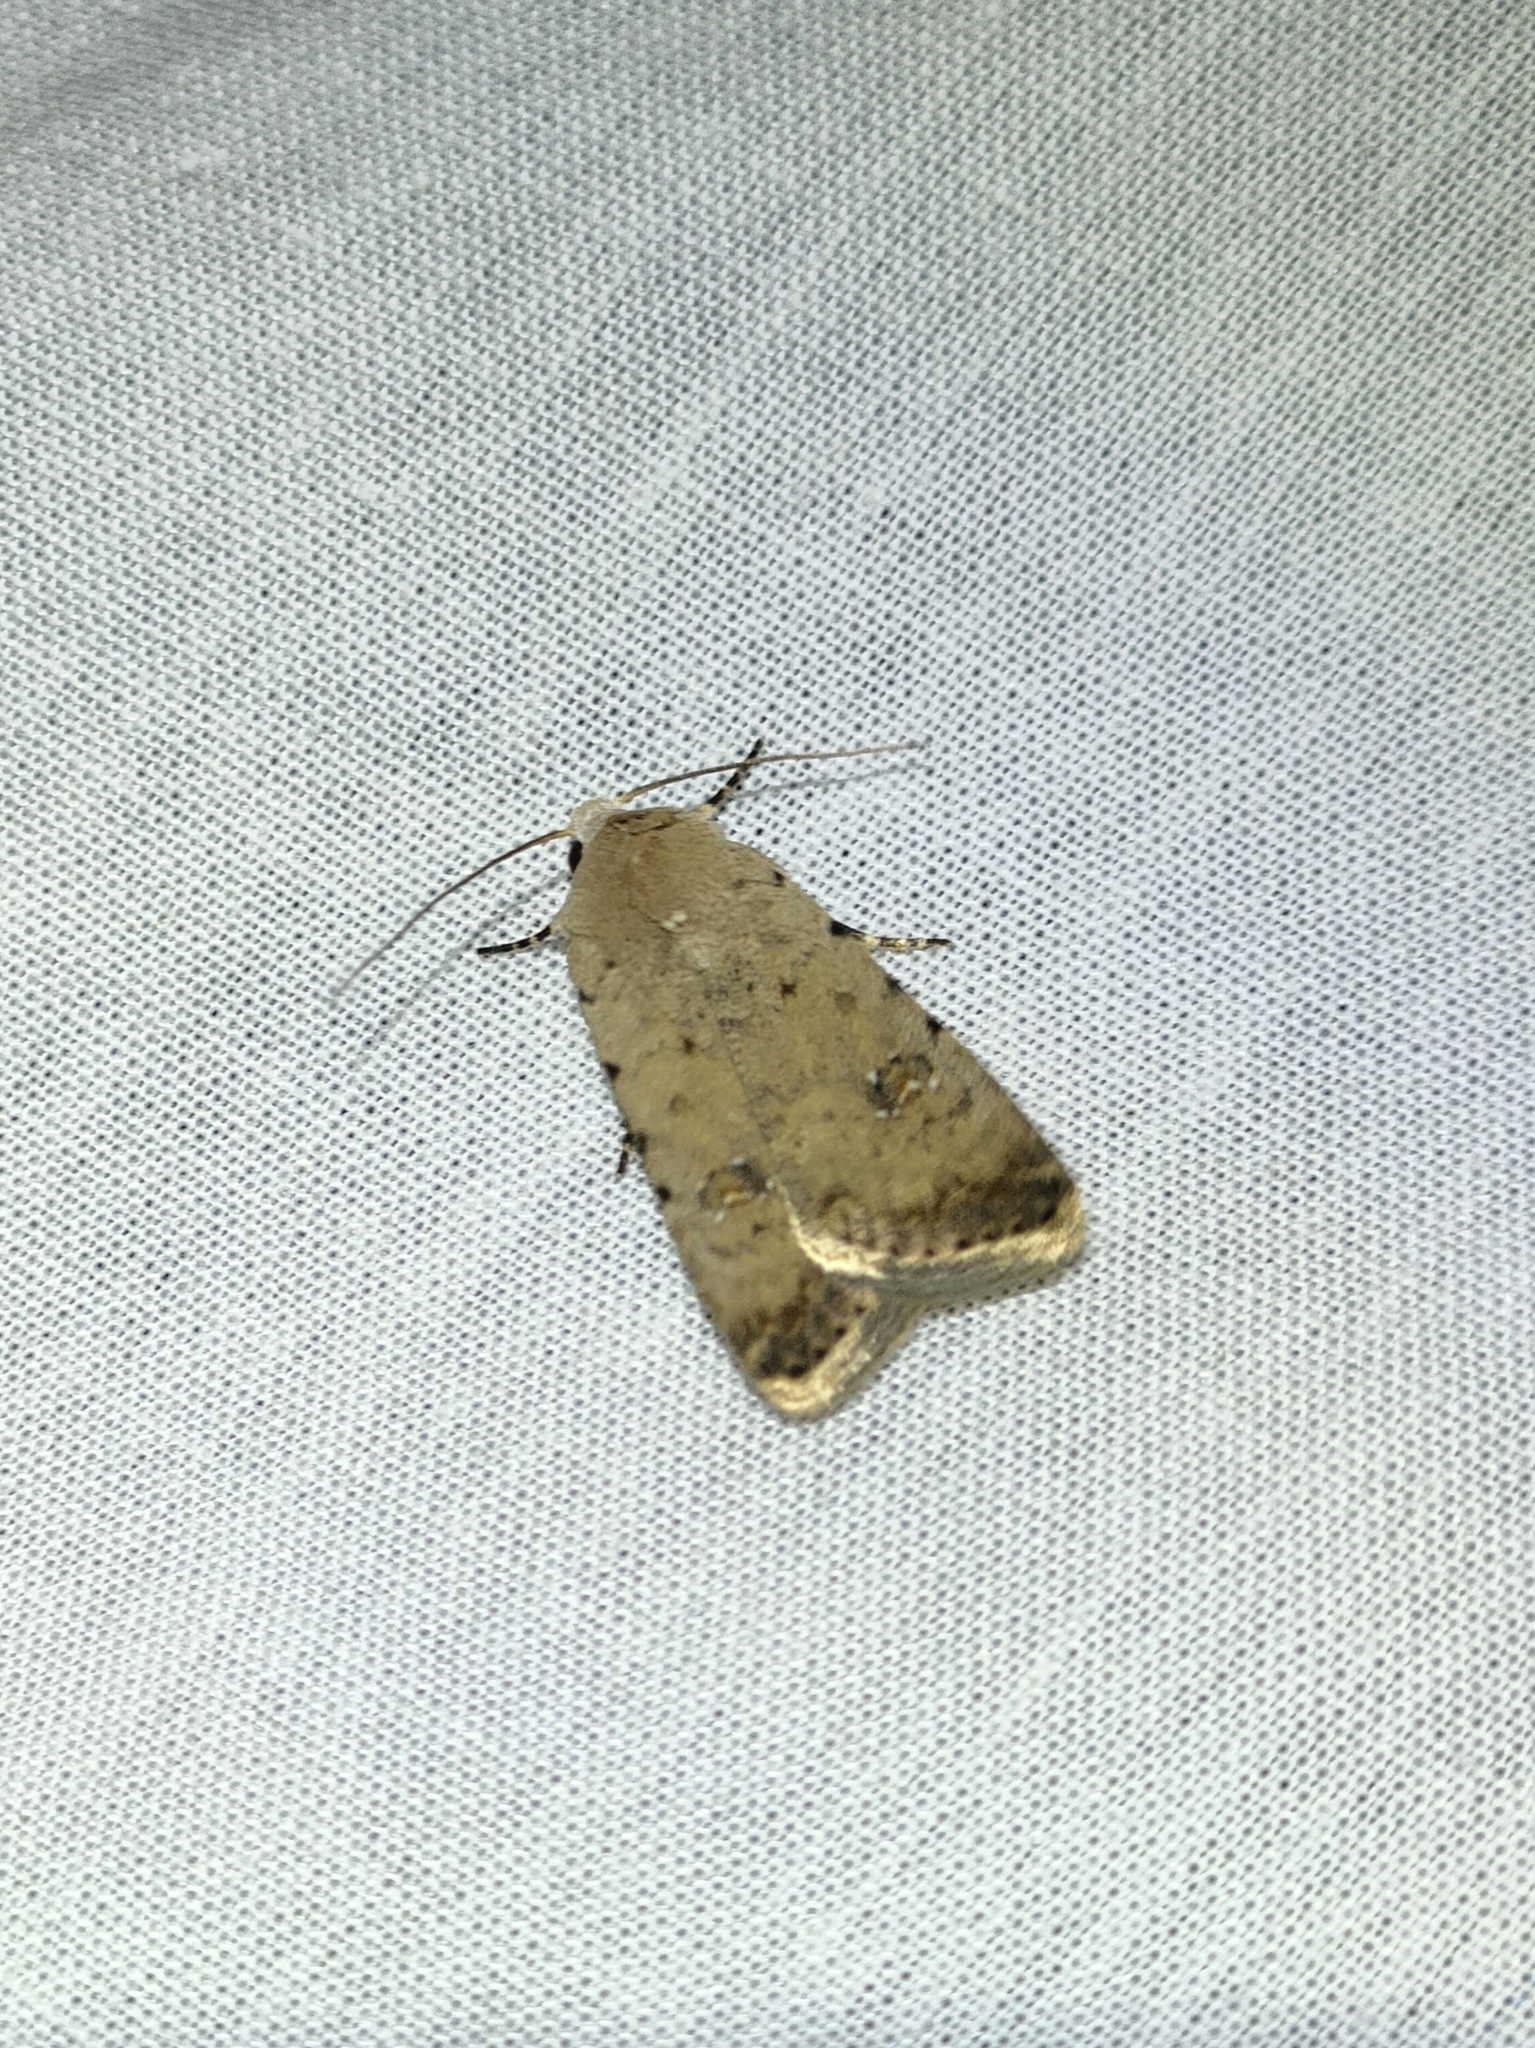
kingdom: Animalia
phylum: Arthropoda
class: Insecta
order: Lepidoptera
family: Noctuidae
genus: Caradrina
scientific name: Caradrina clavipalpis
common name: Pale mottled willow
